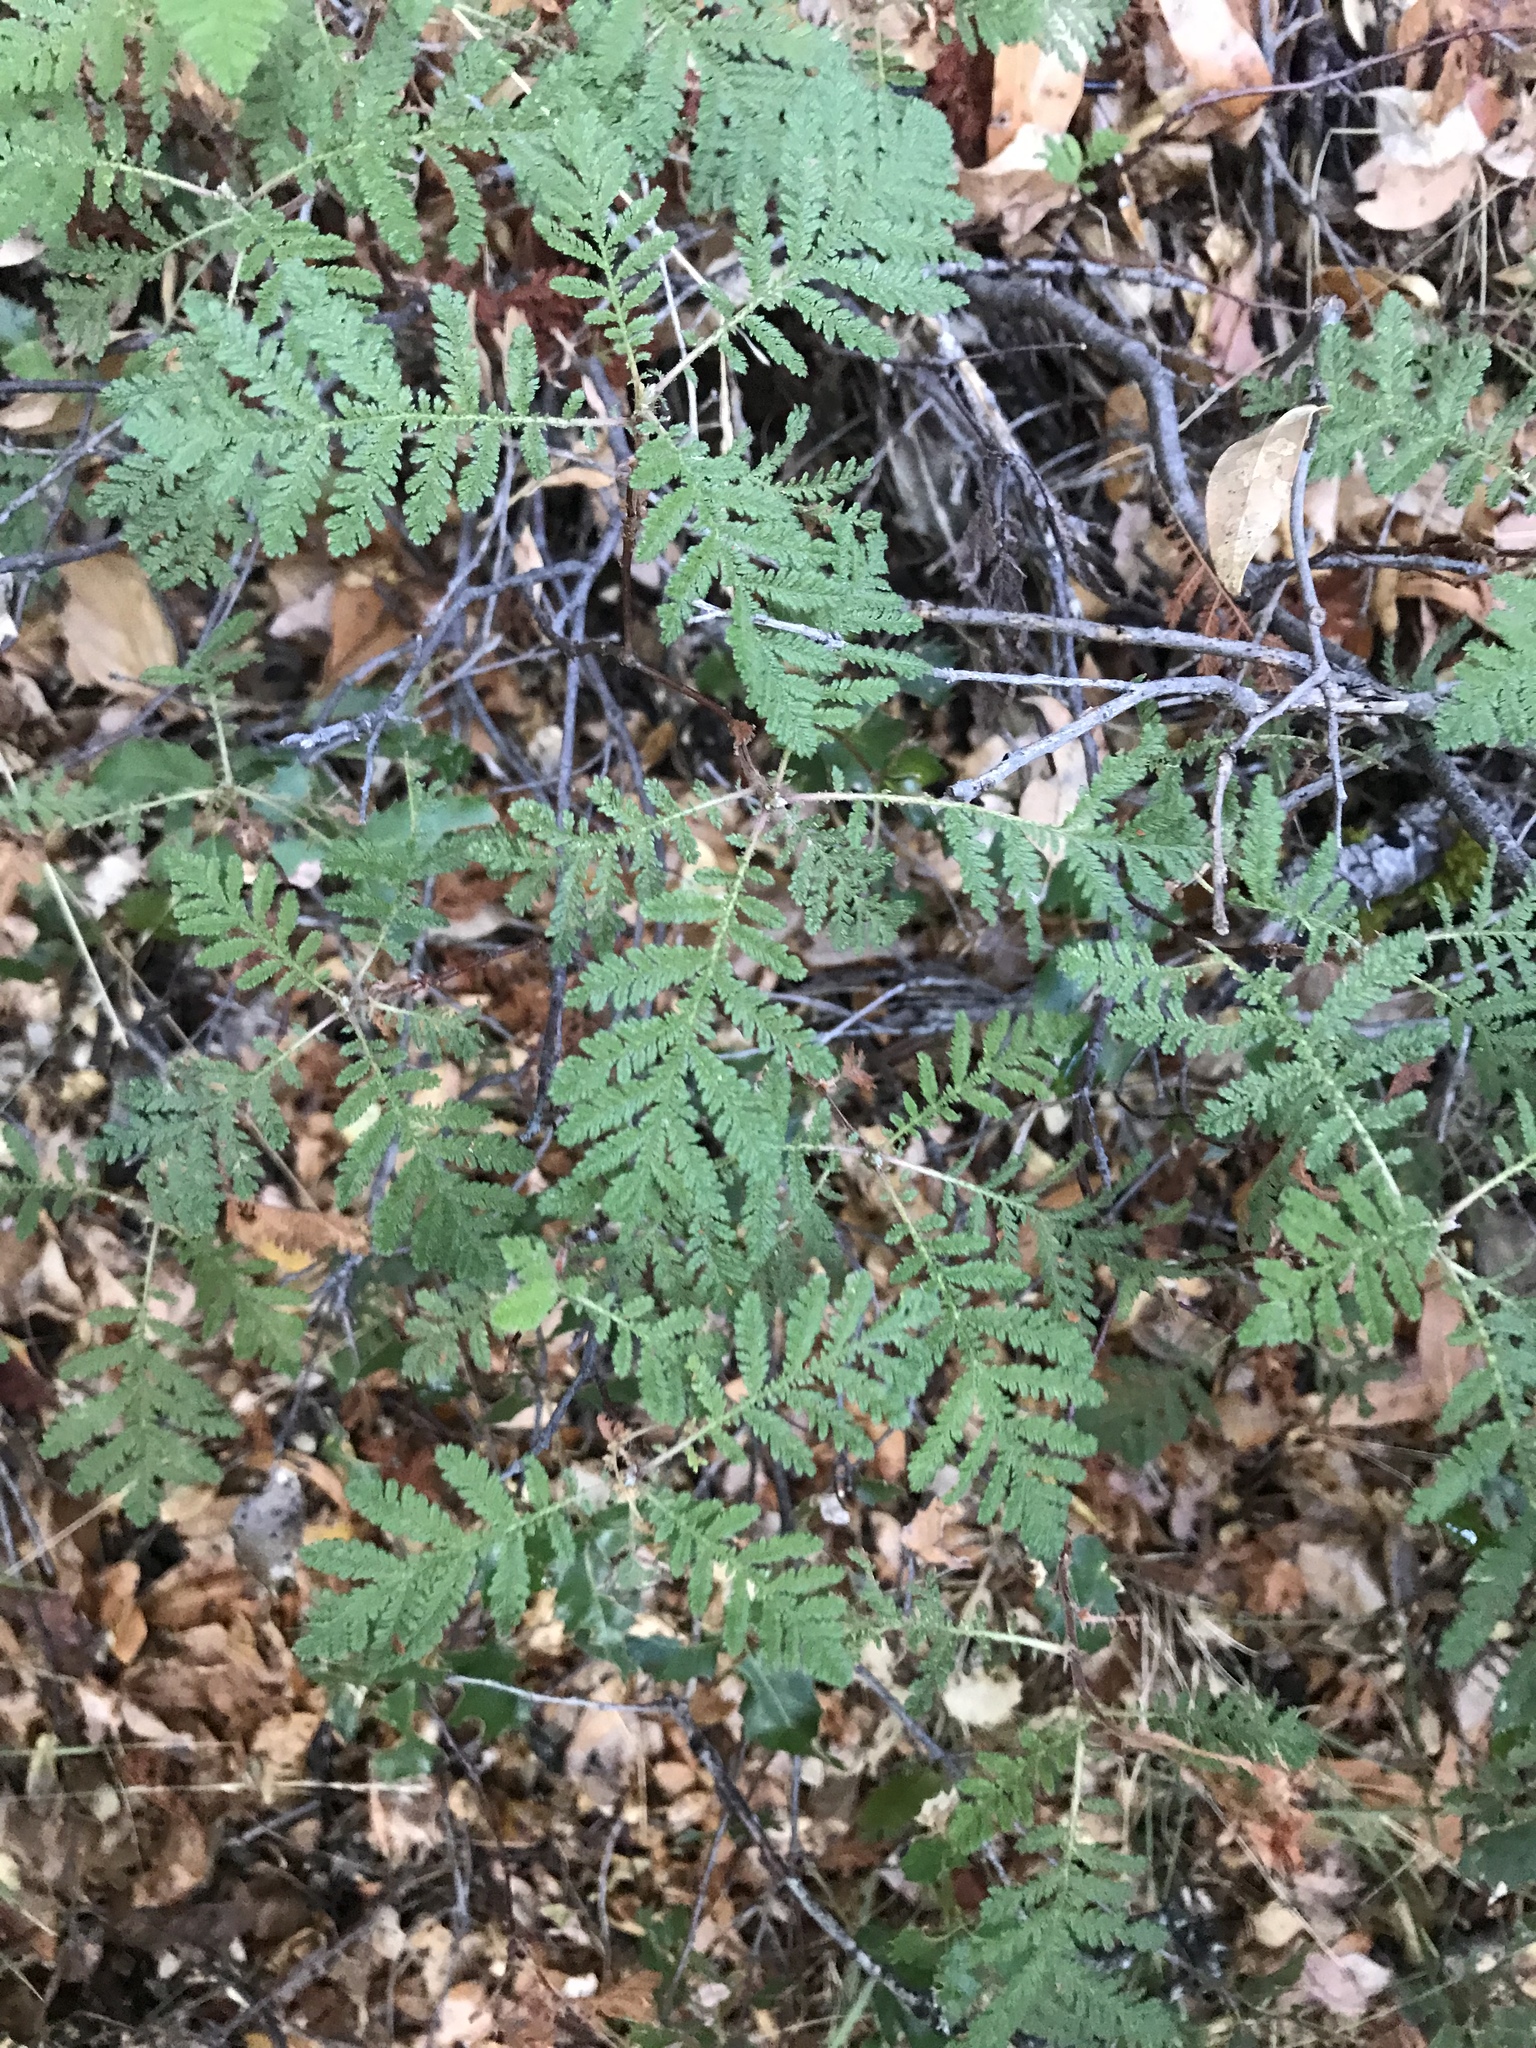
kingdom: Plantae
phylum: Tracheophyta
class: Magnoliopsida
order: Rosales
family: Rosaceae
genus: Chamaebatia
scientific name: Chamaebatia foliolosa
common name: Mountain misery
